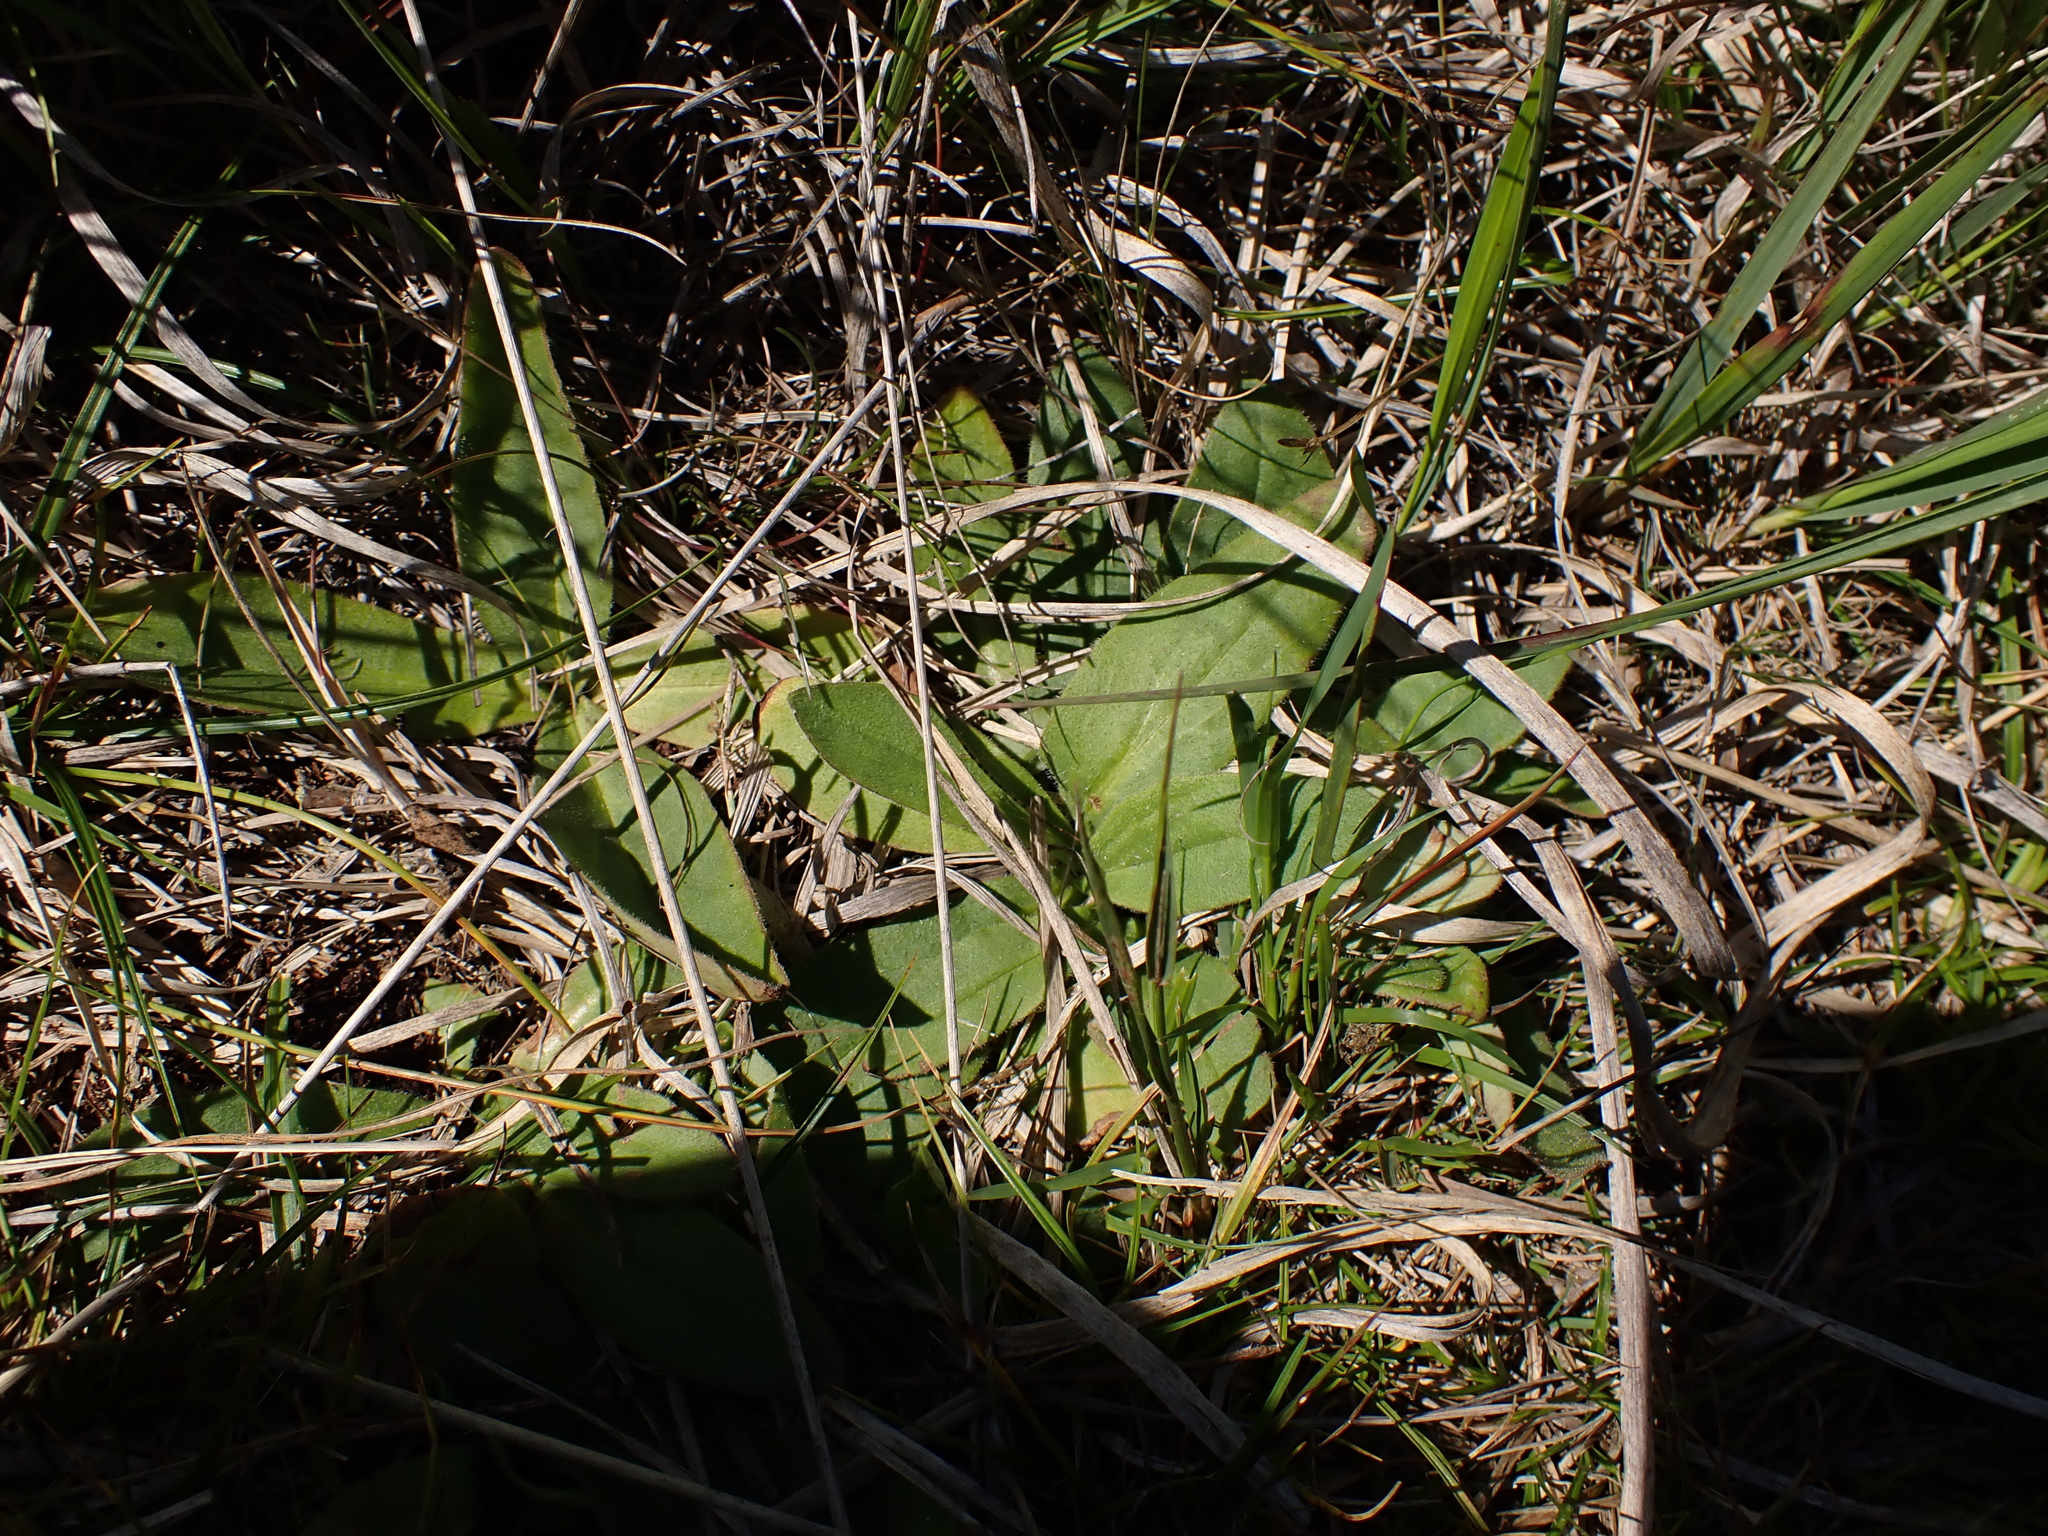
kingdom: Plantae
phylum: Tracheophyta
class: Magnoliopsida
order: Asterales
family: Asteraceae
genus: Arnica
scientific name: Arnica montana
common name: Leopard's bane
